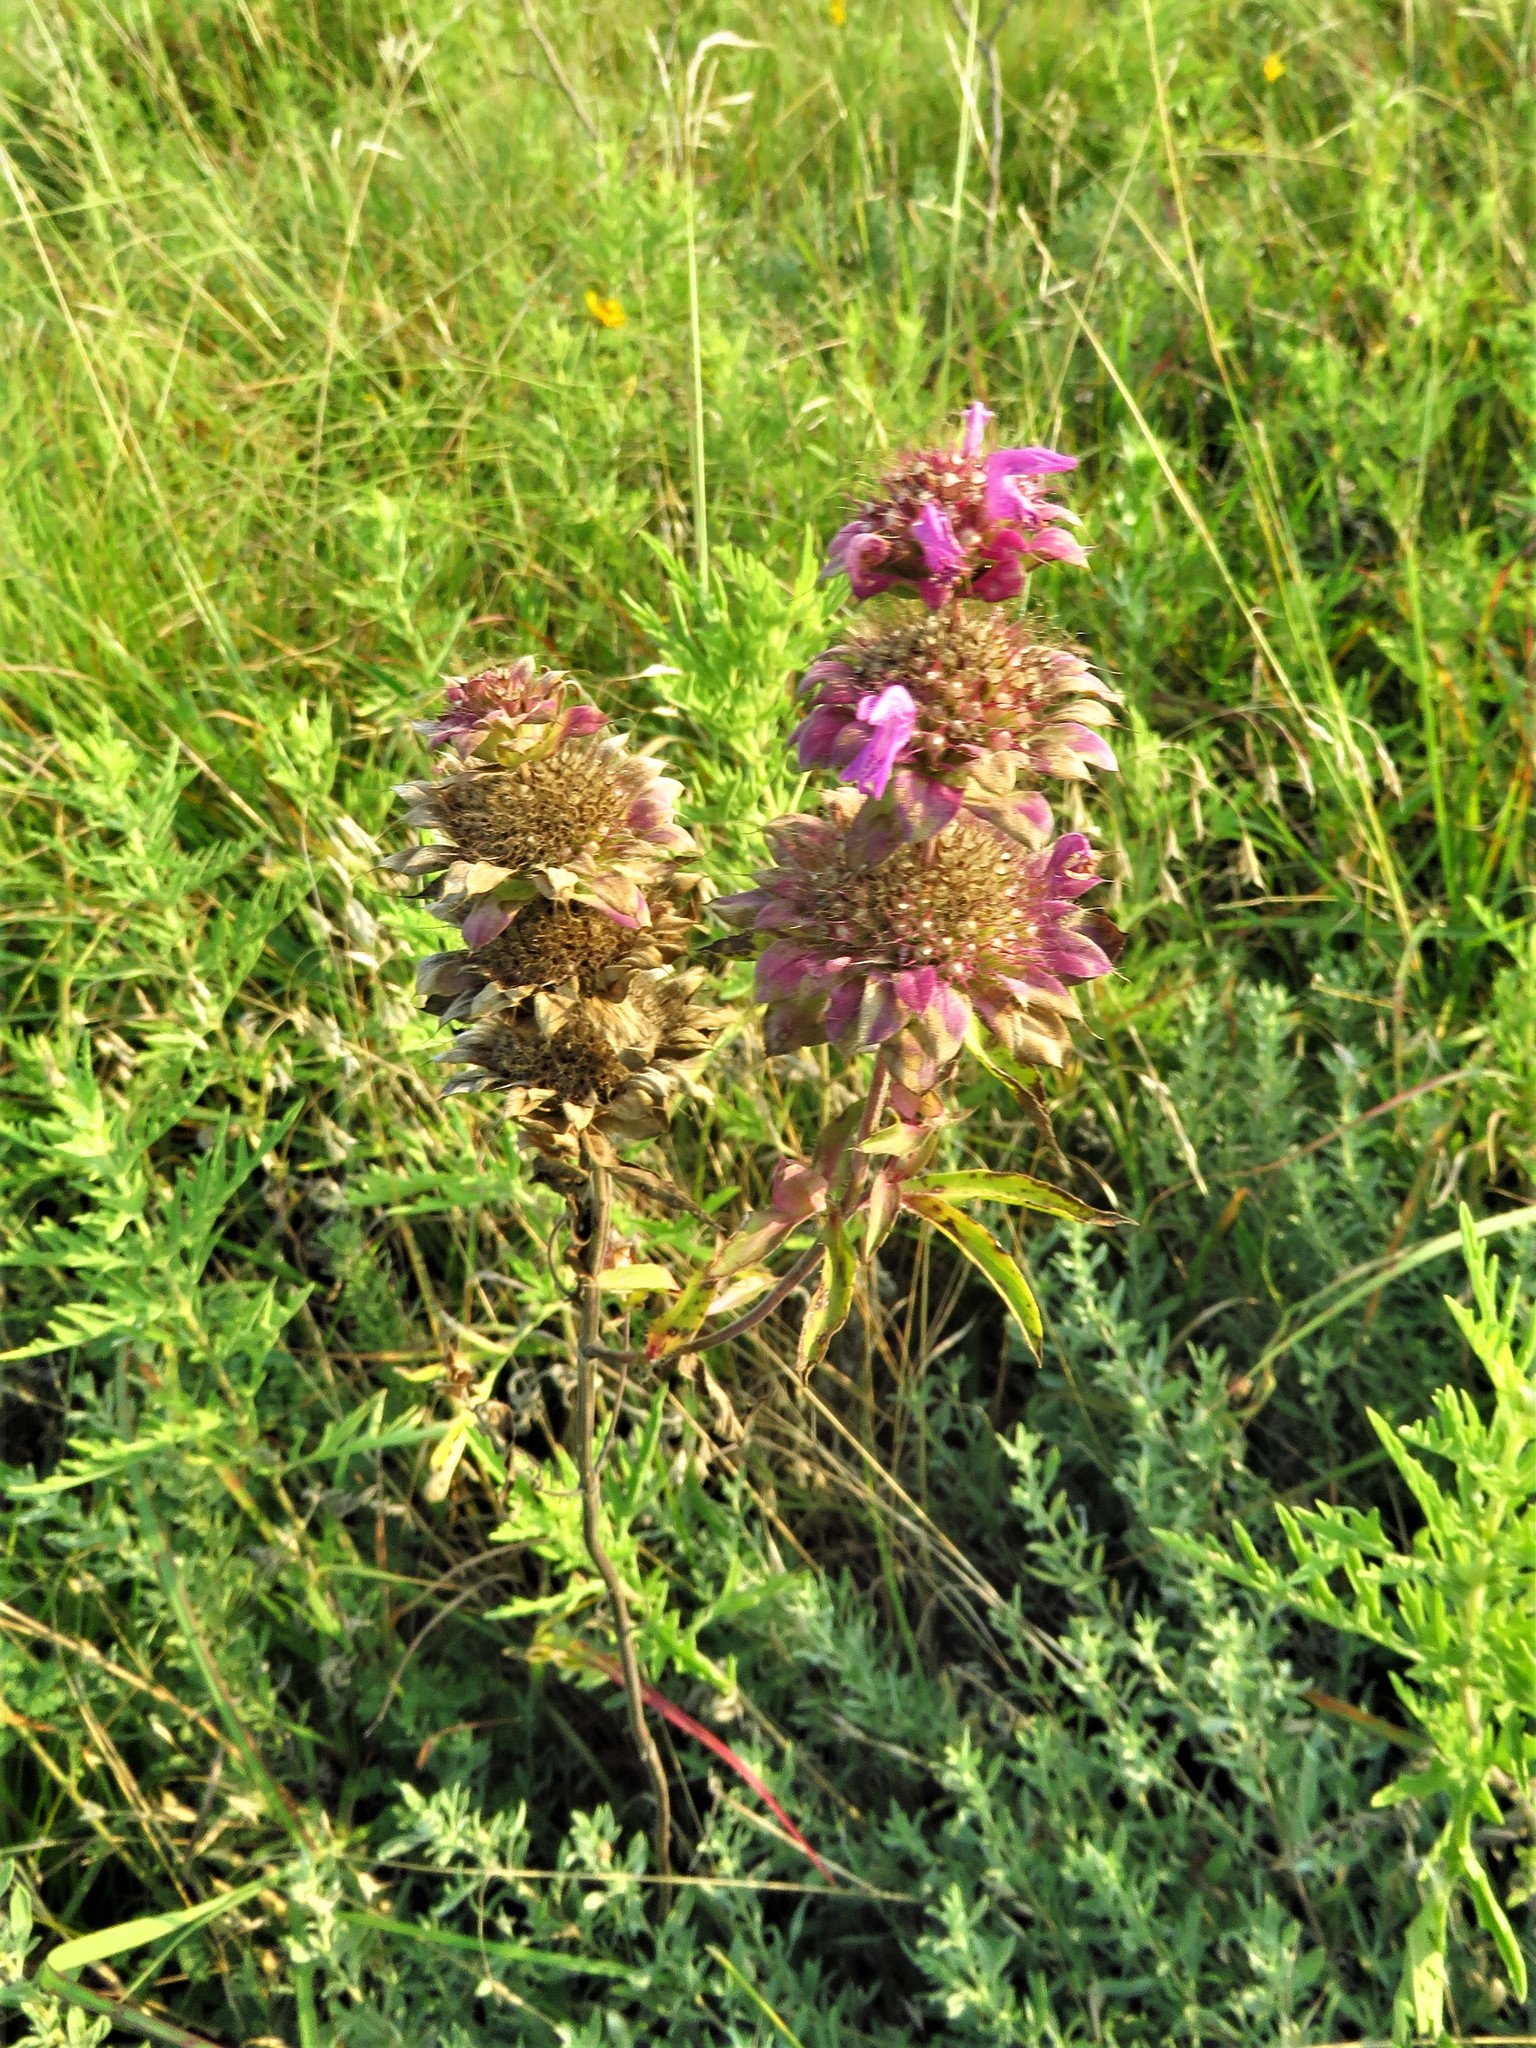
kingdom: Plantae
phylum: Tracheophyta
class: Magnoliopsida
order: Lamiales
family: Lamiaceae
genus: Monarda
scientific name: Monarda citriodora
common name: Lemon beebalm
